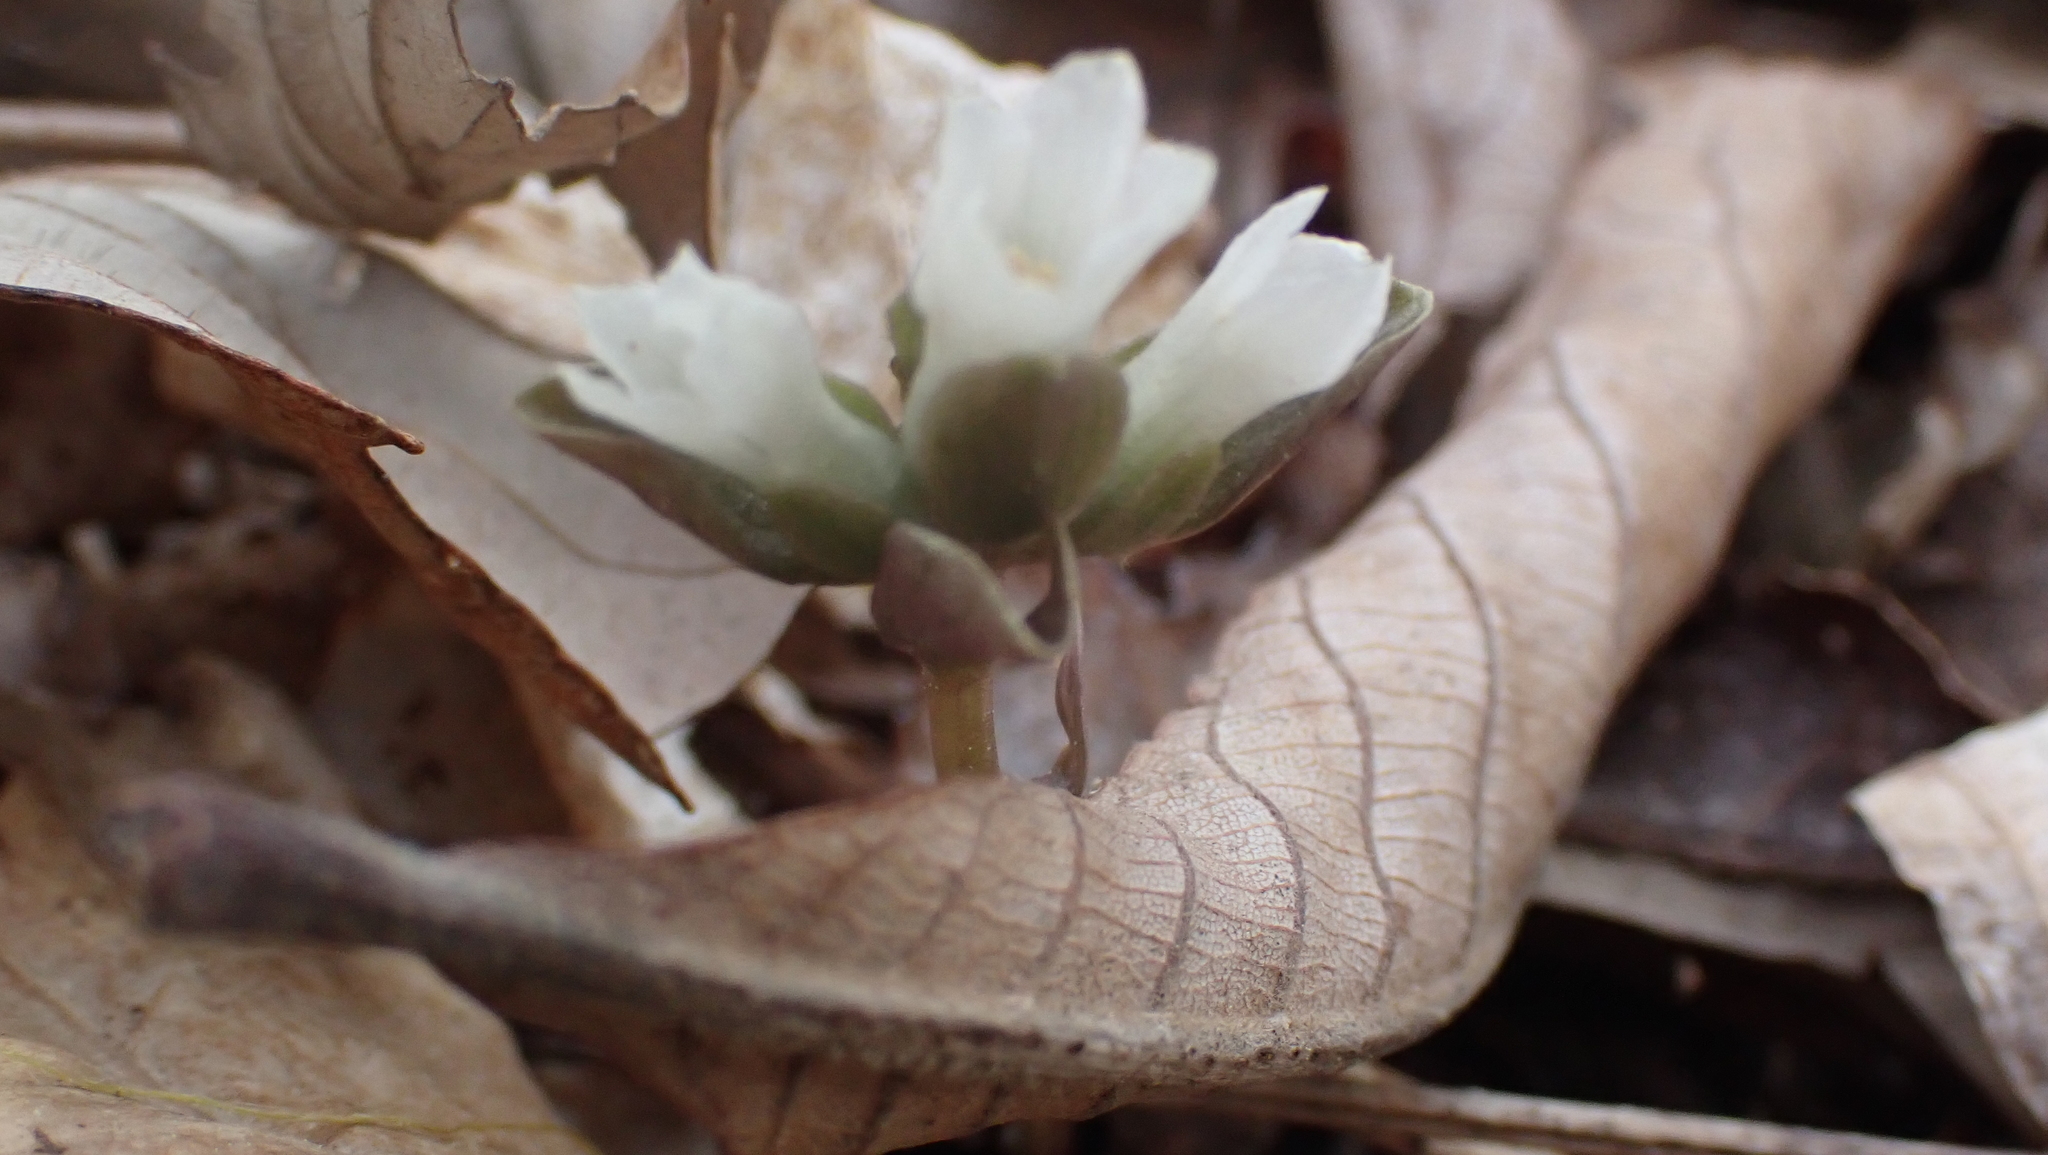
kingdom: Plantae
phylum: Tracheophyta
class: Magnoliopsida
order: Gentianales
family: Gentianaceae
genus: Obolaria
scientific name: Obolaria virginica
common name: Pennywort
